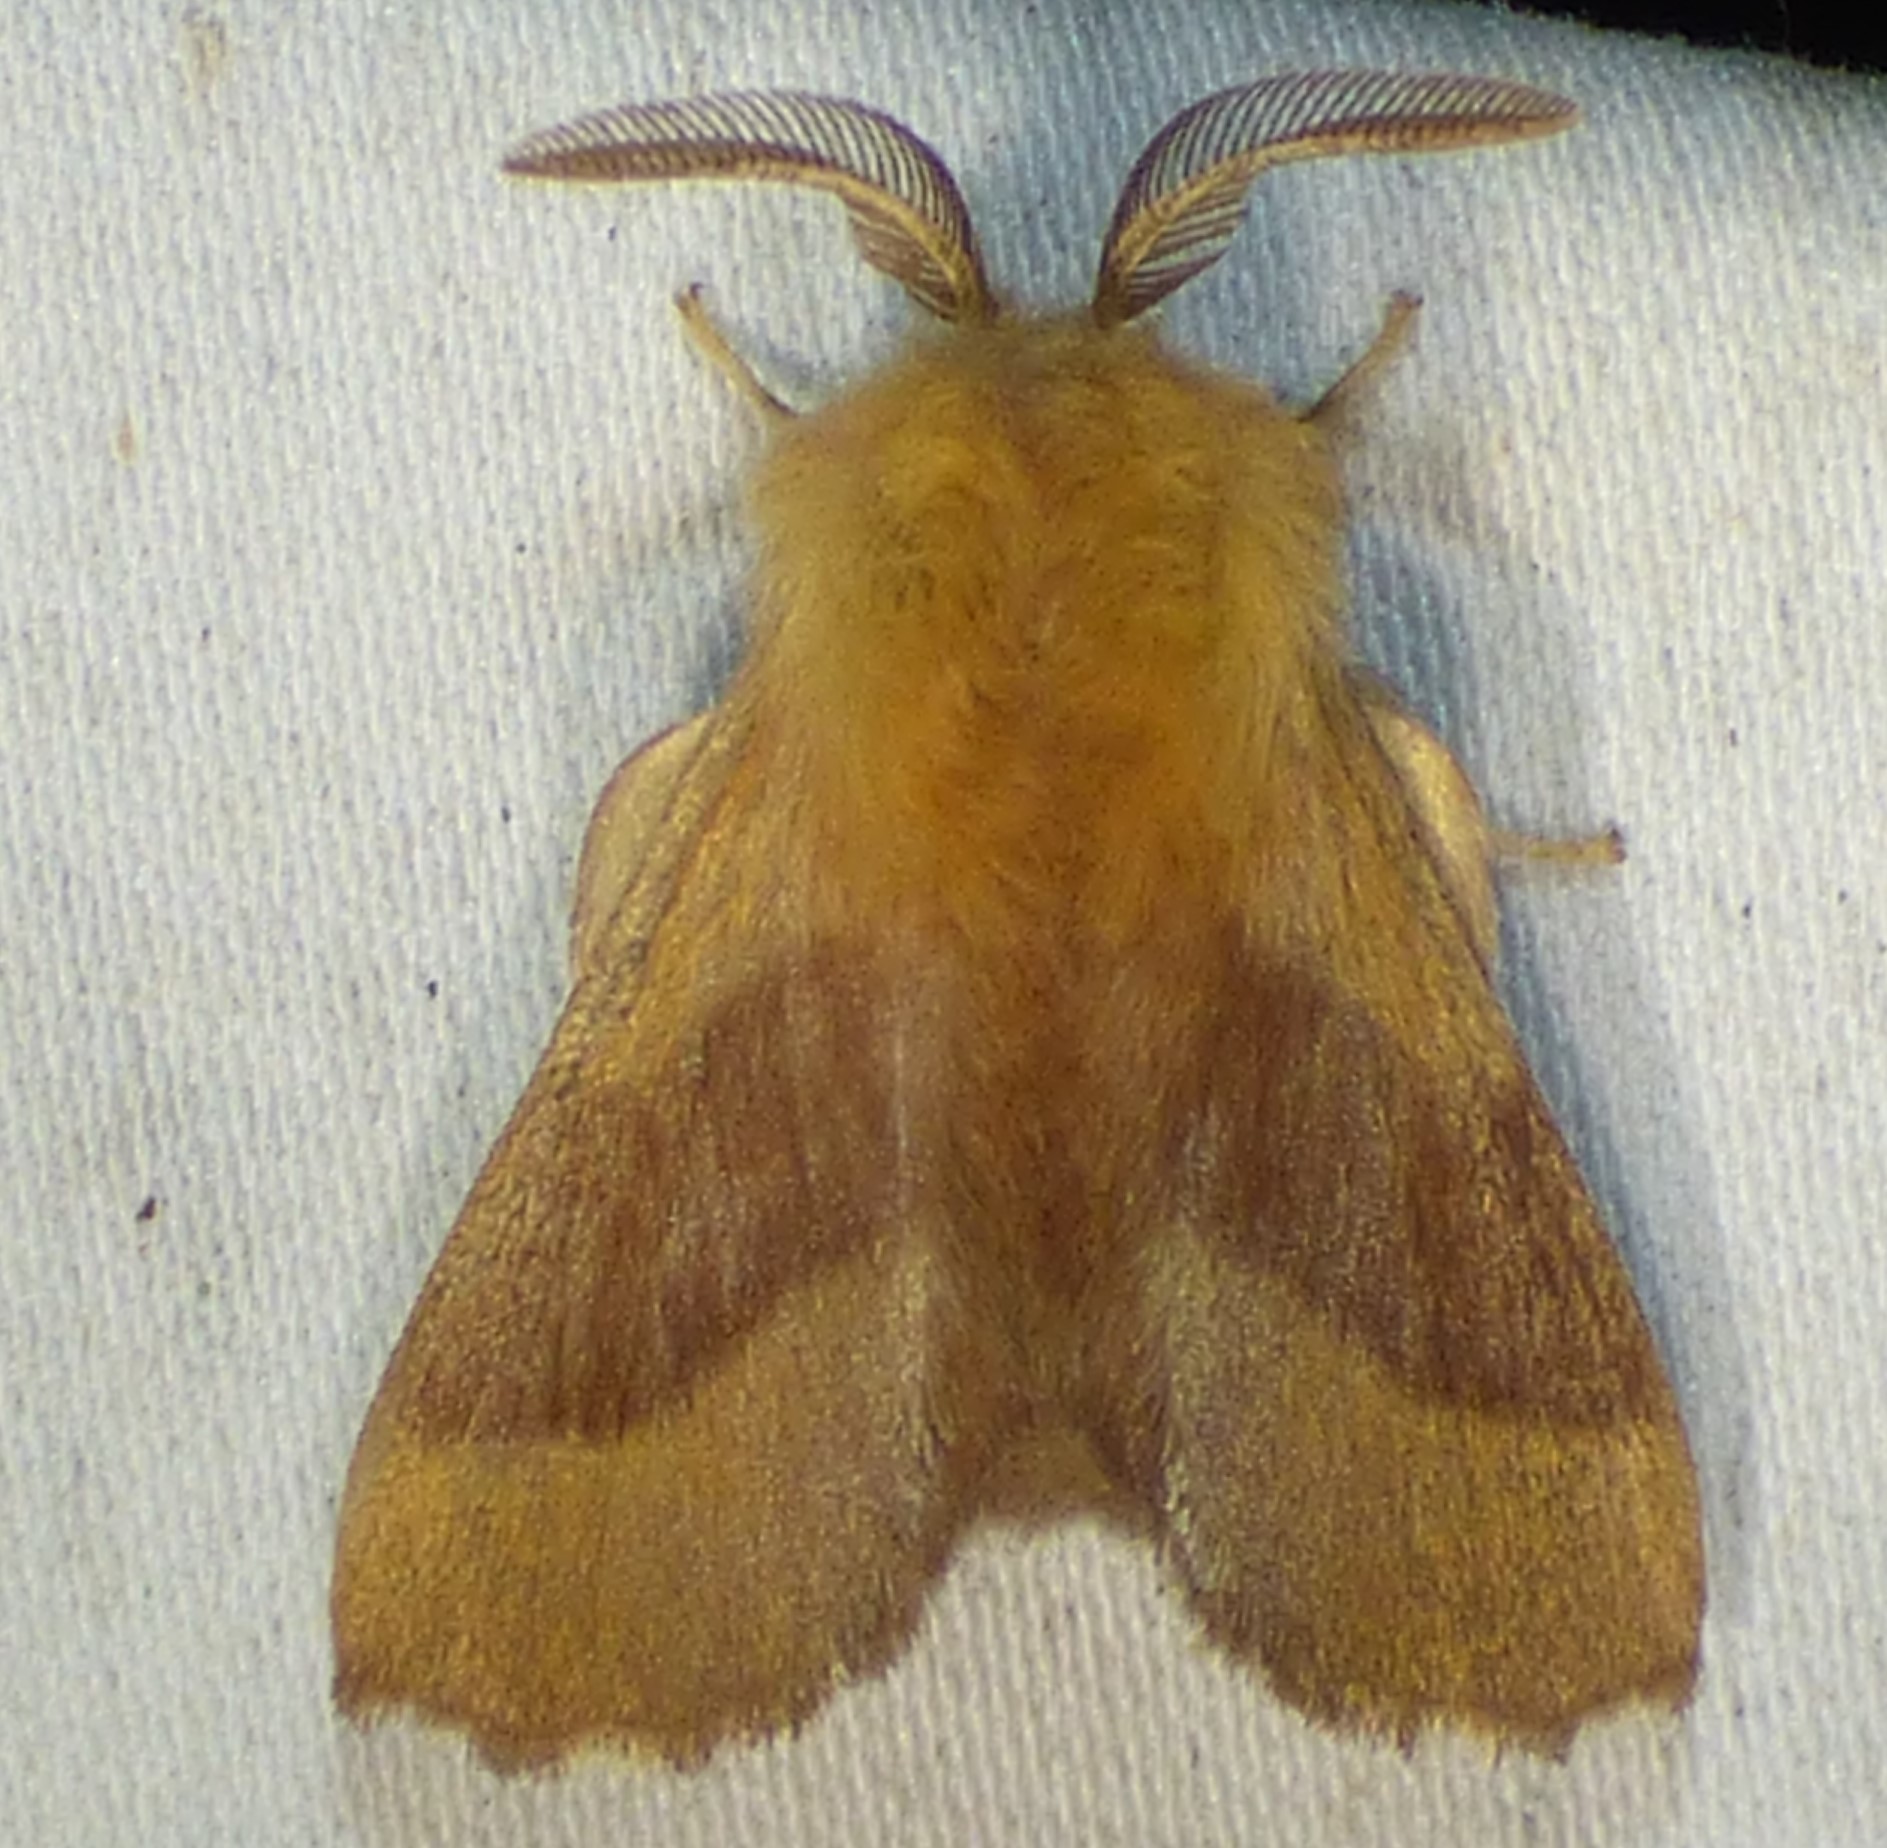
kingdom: Animalia
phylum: Arthropoda
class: Insecta
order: Lepidoptera
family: Lasiocampidae
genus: Malacosoma
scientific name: Malacosoma disstria
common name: Forest tent caterpillar
